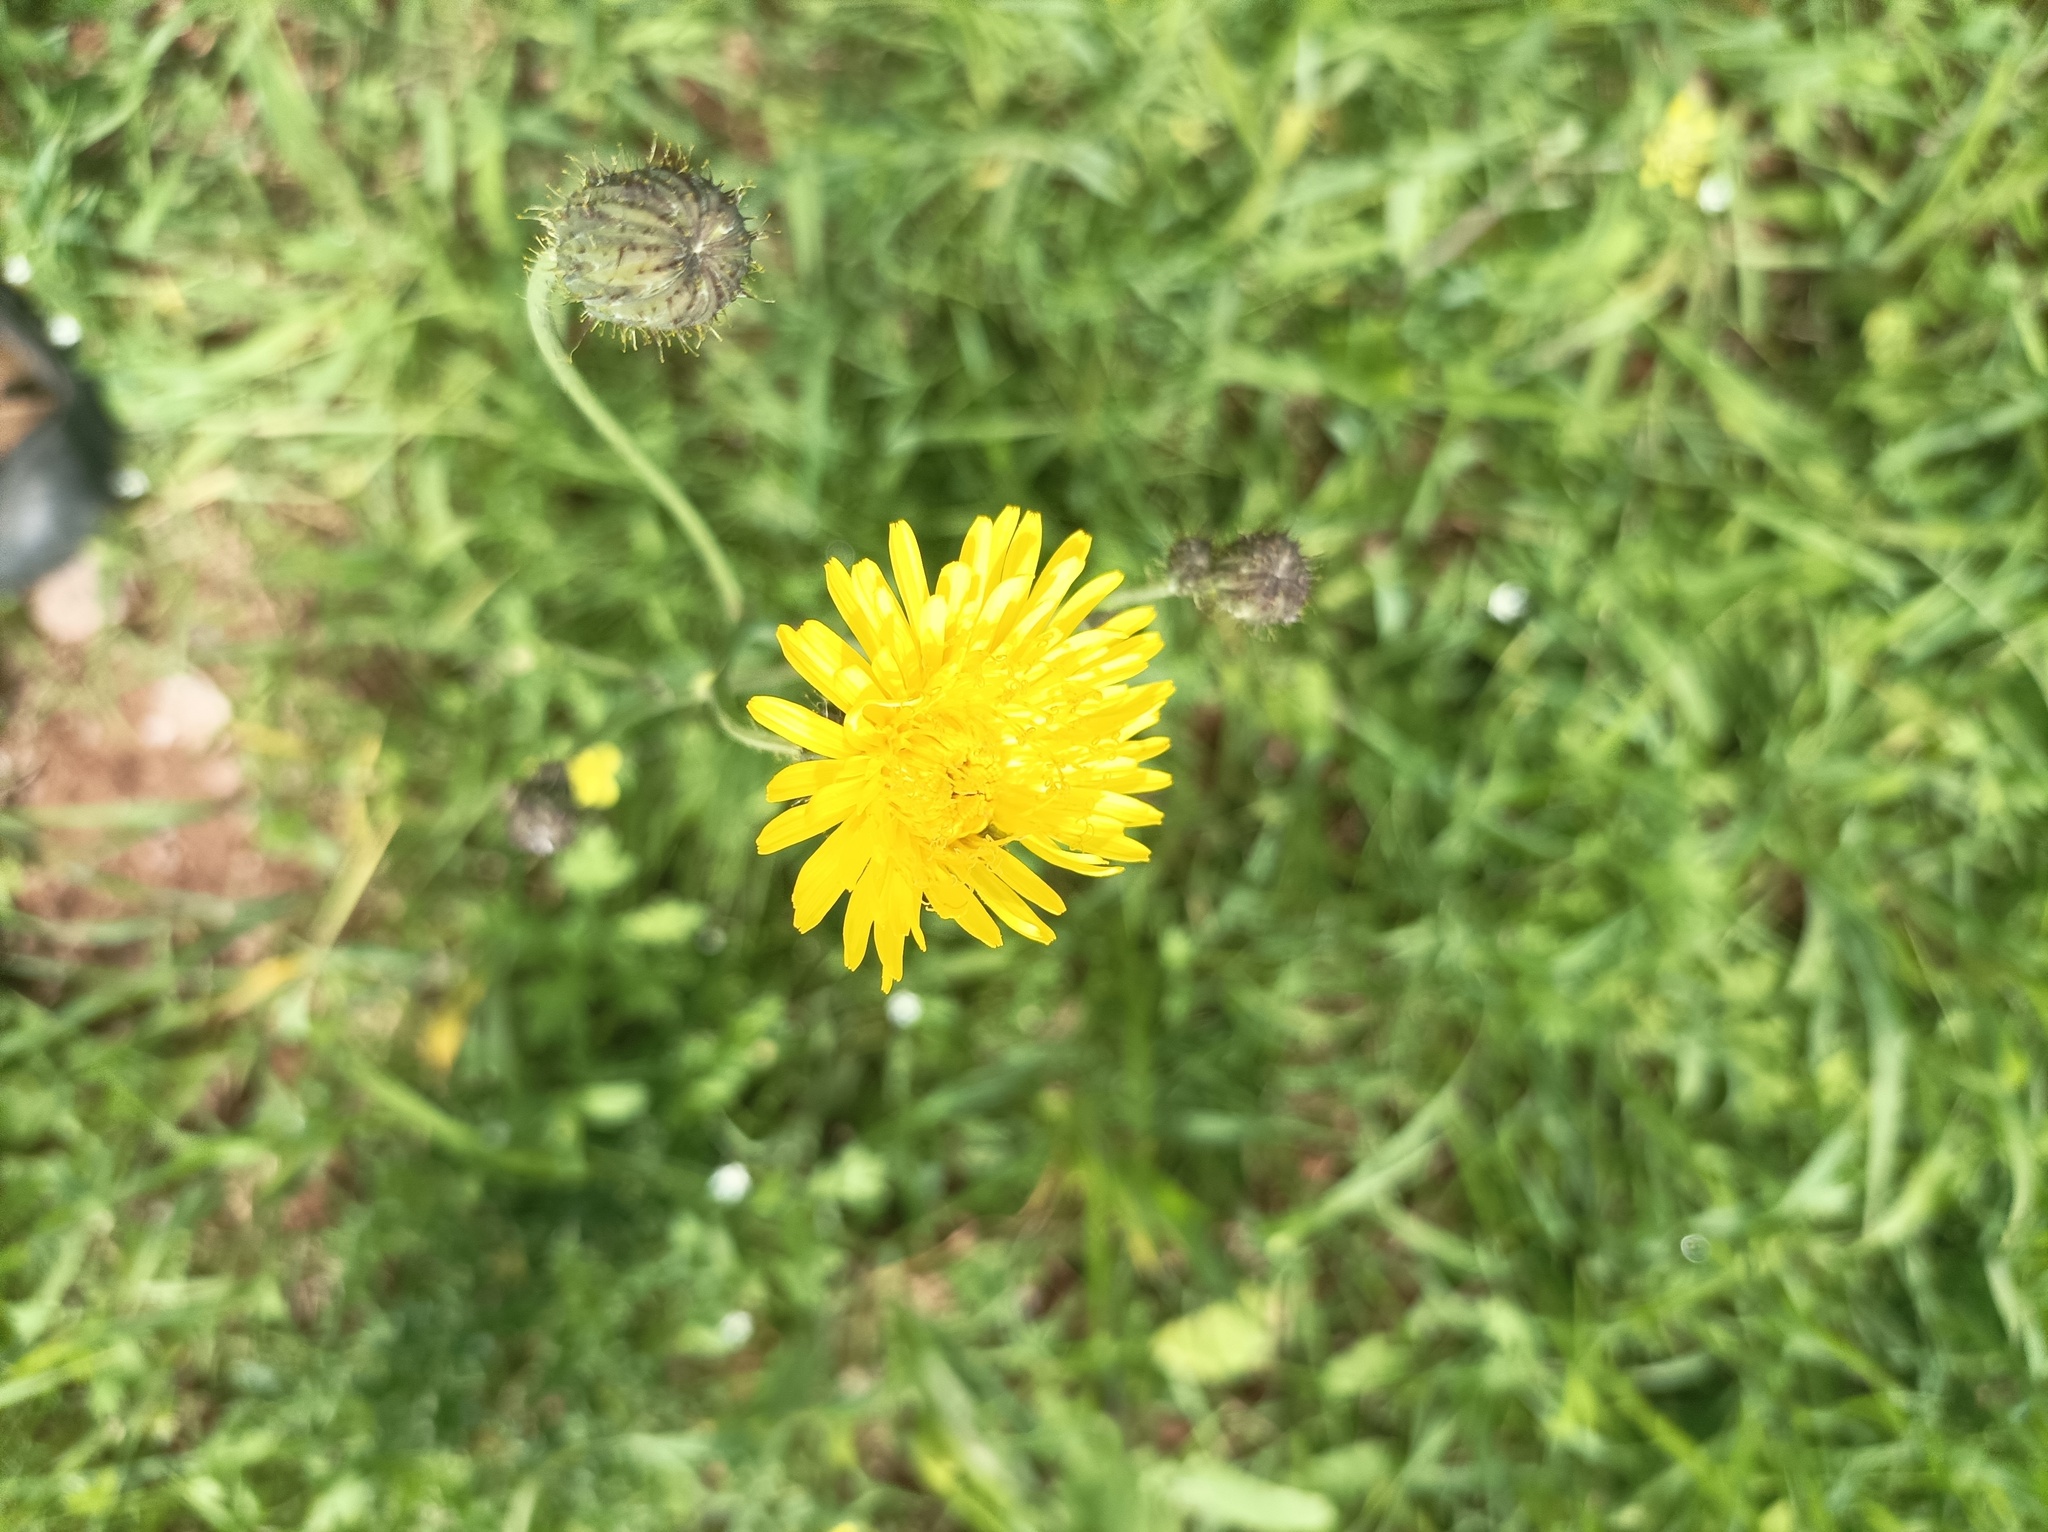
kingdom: Plantae
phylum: Tracheophyta
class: Magnoliopsida
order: Asterales
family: Asteraceae
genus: Sonchus
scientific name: Sonchus arvensis
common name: Perennial sow-thistle
